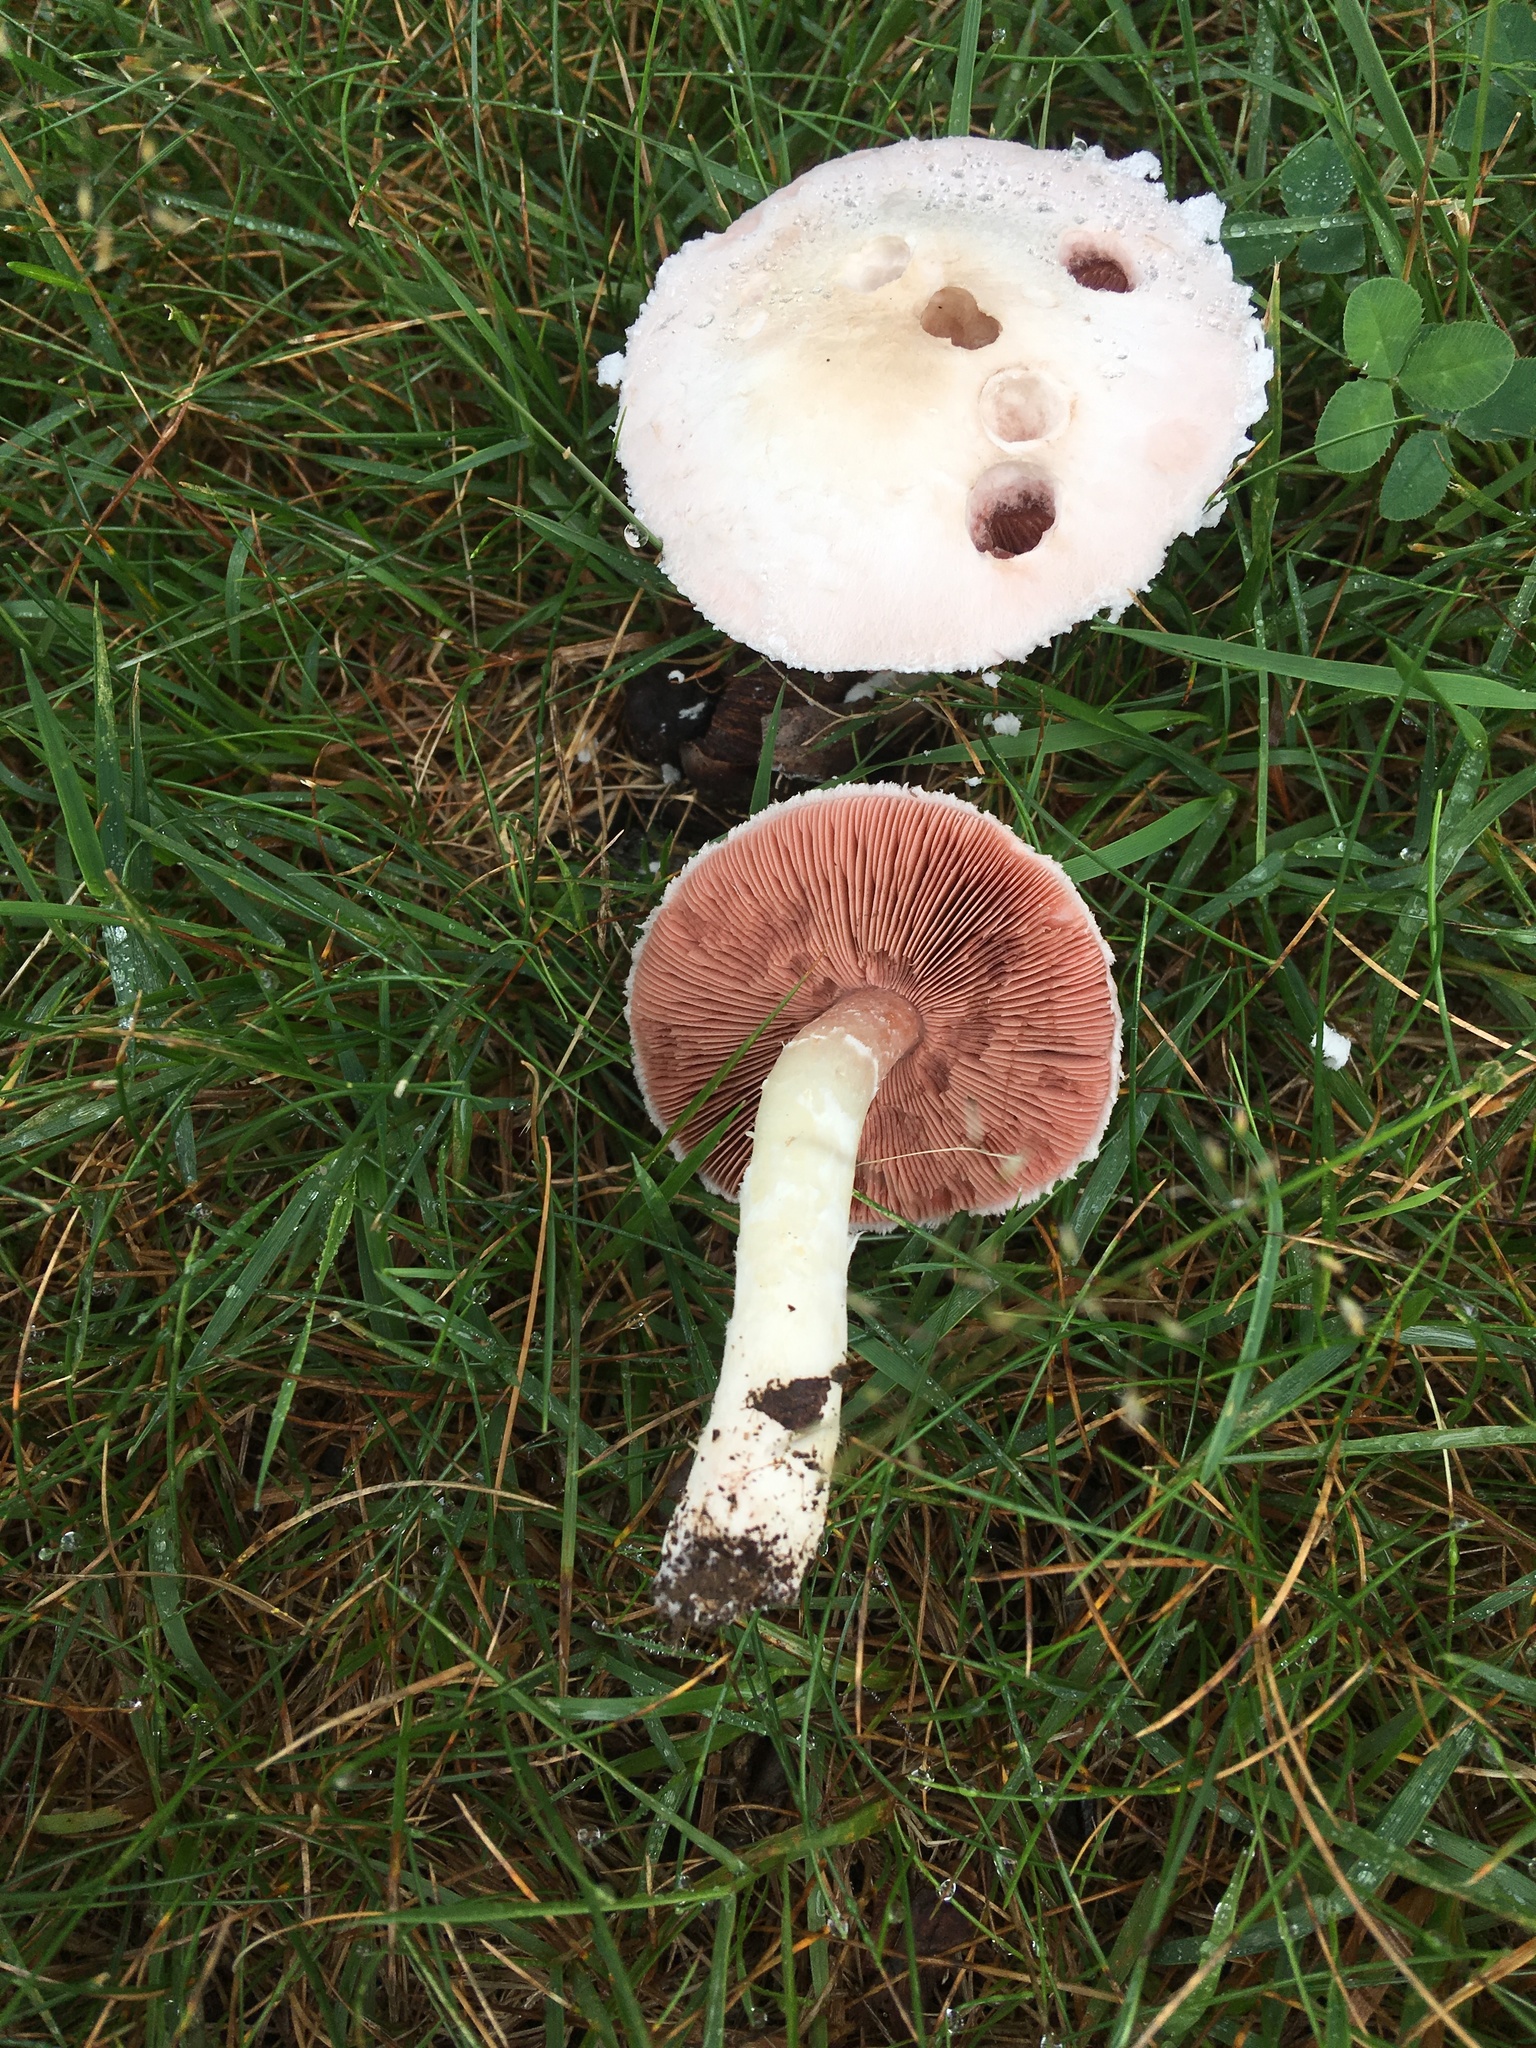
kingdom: Fungi
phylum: Basidiomycota
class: Agaricomycetes
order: Agaricales
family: Agaricaceae
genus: Agaricus
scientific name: Agaricus andrewii
